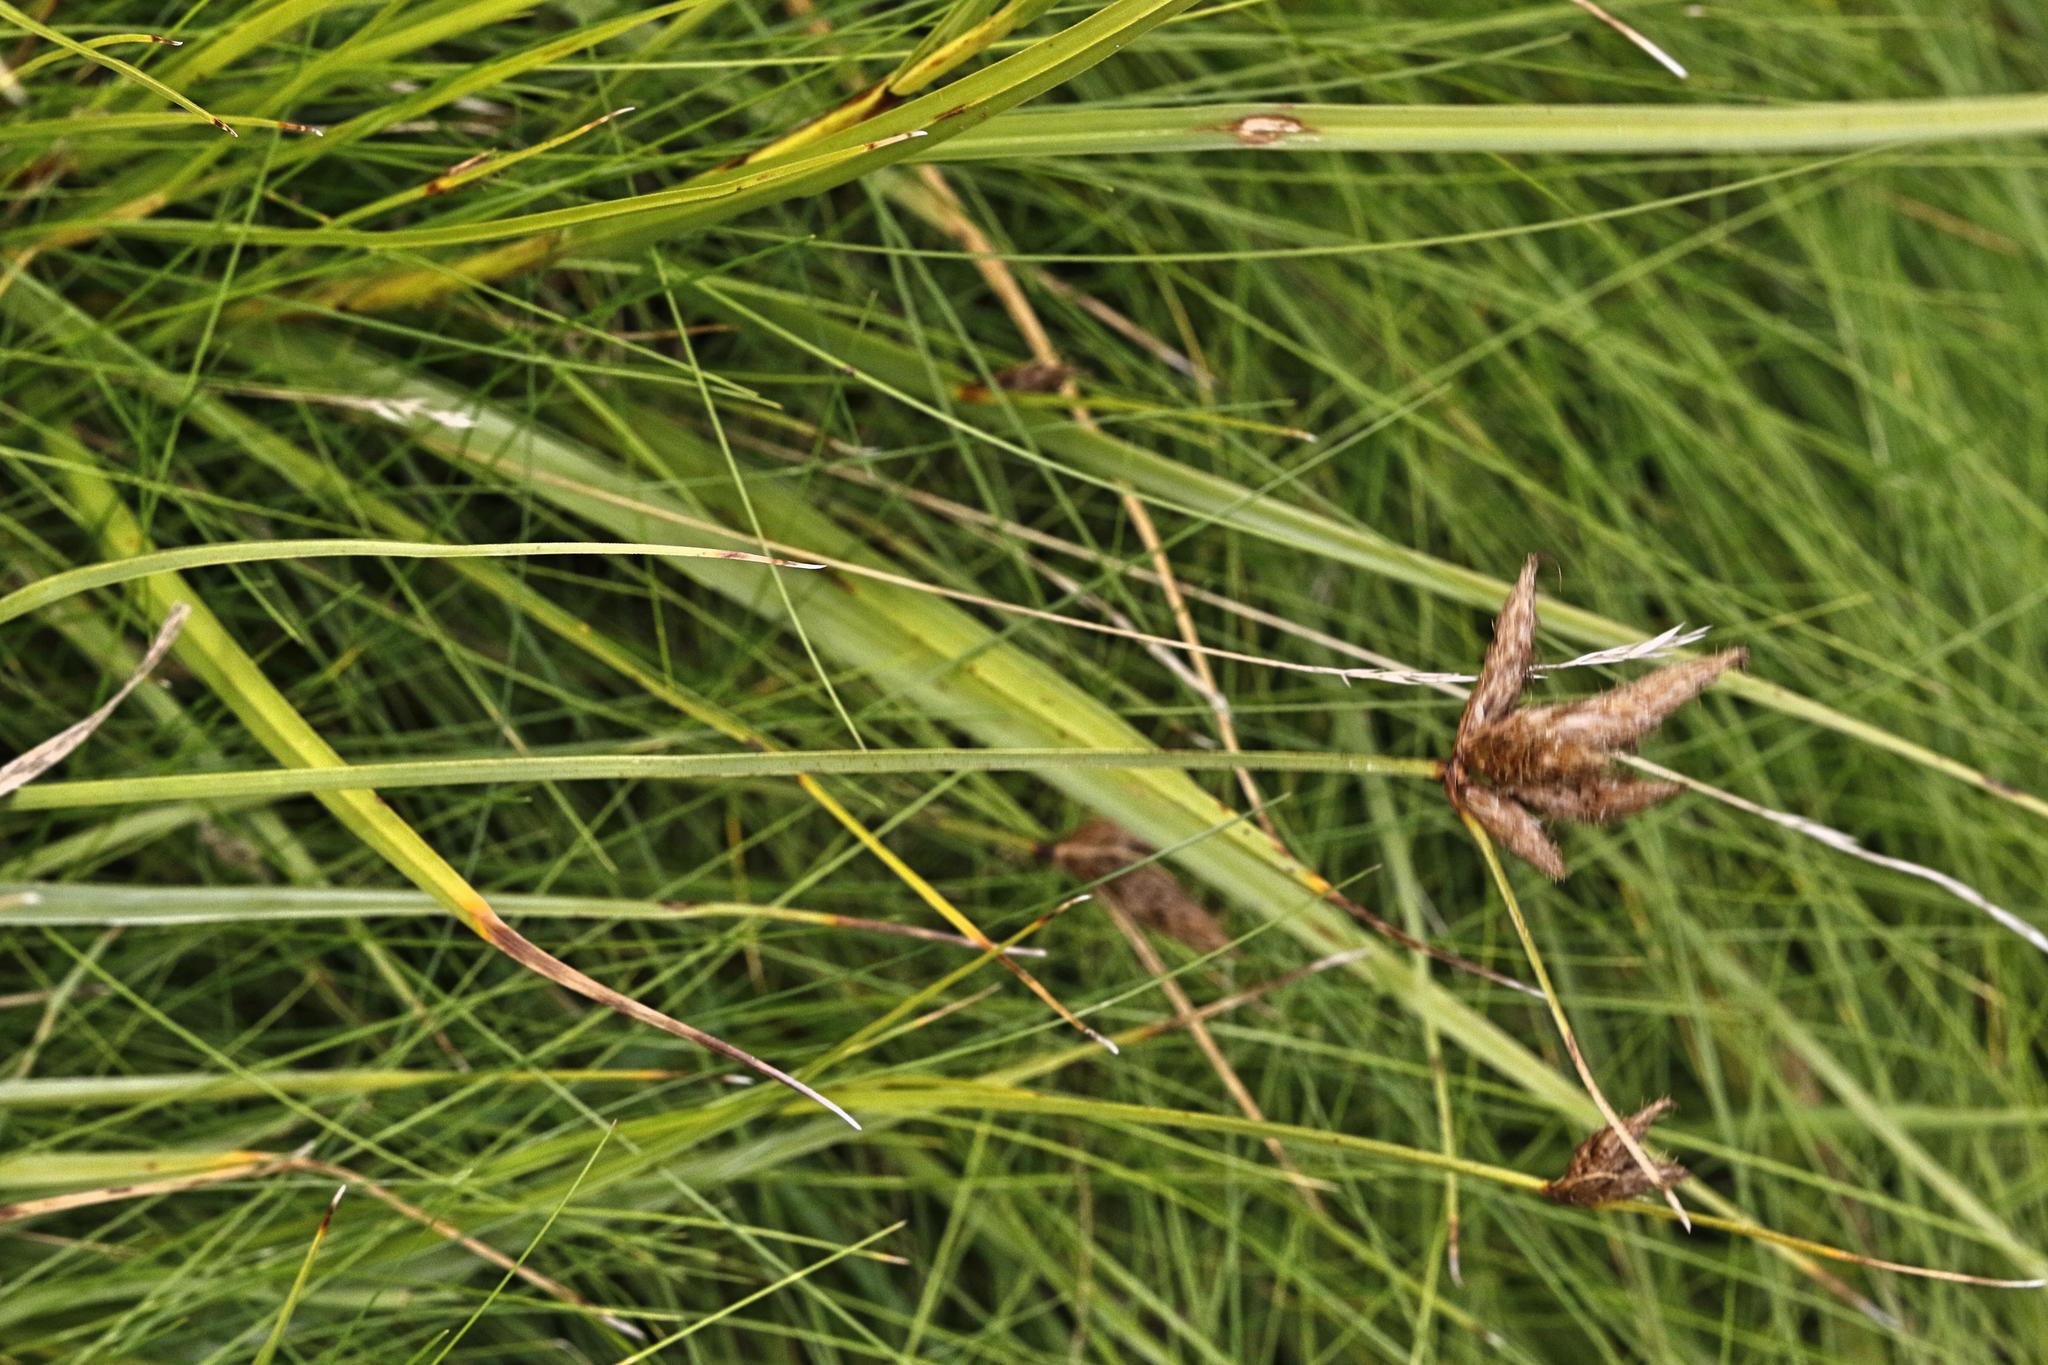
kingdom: Plantae
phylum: Tracheophyta
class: Liliopsida
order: Poales
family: Cyperaceae
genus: Bolboschoenus
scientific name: Bolboschoenus maritimus
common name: Sea club-rush
